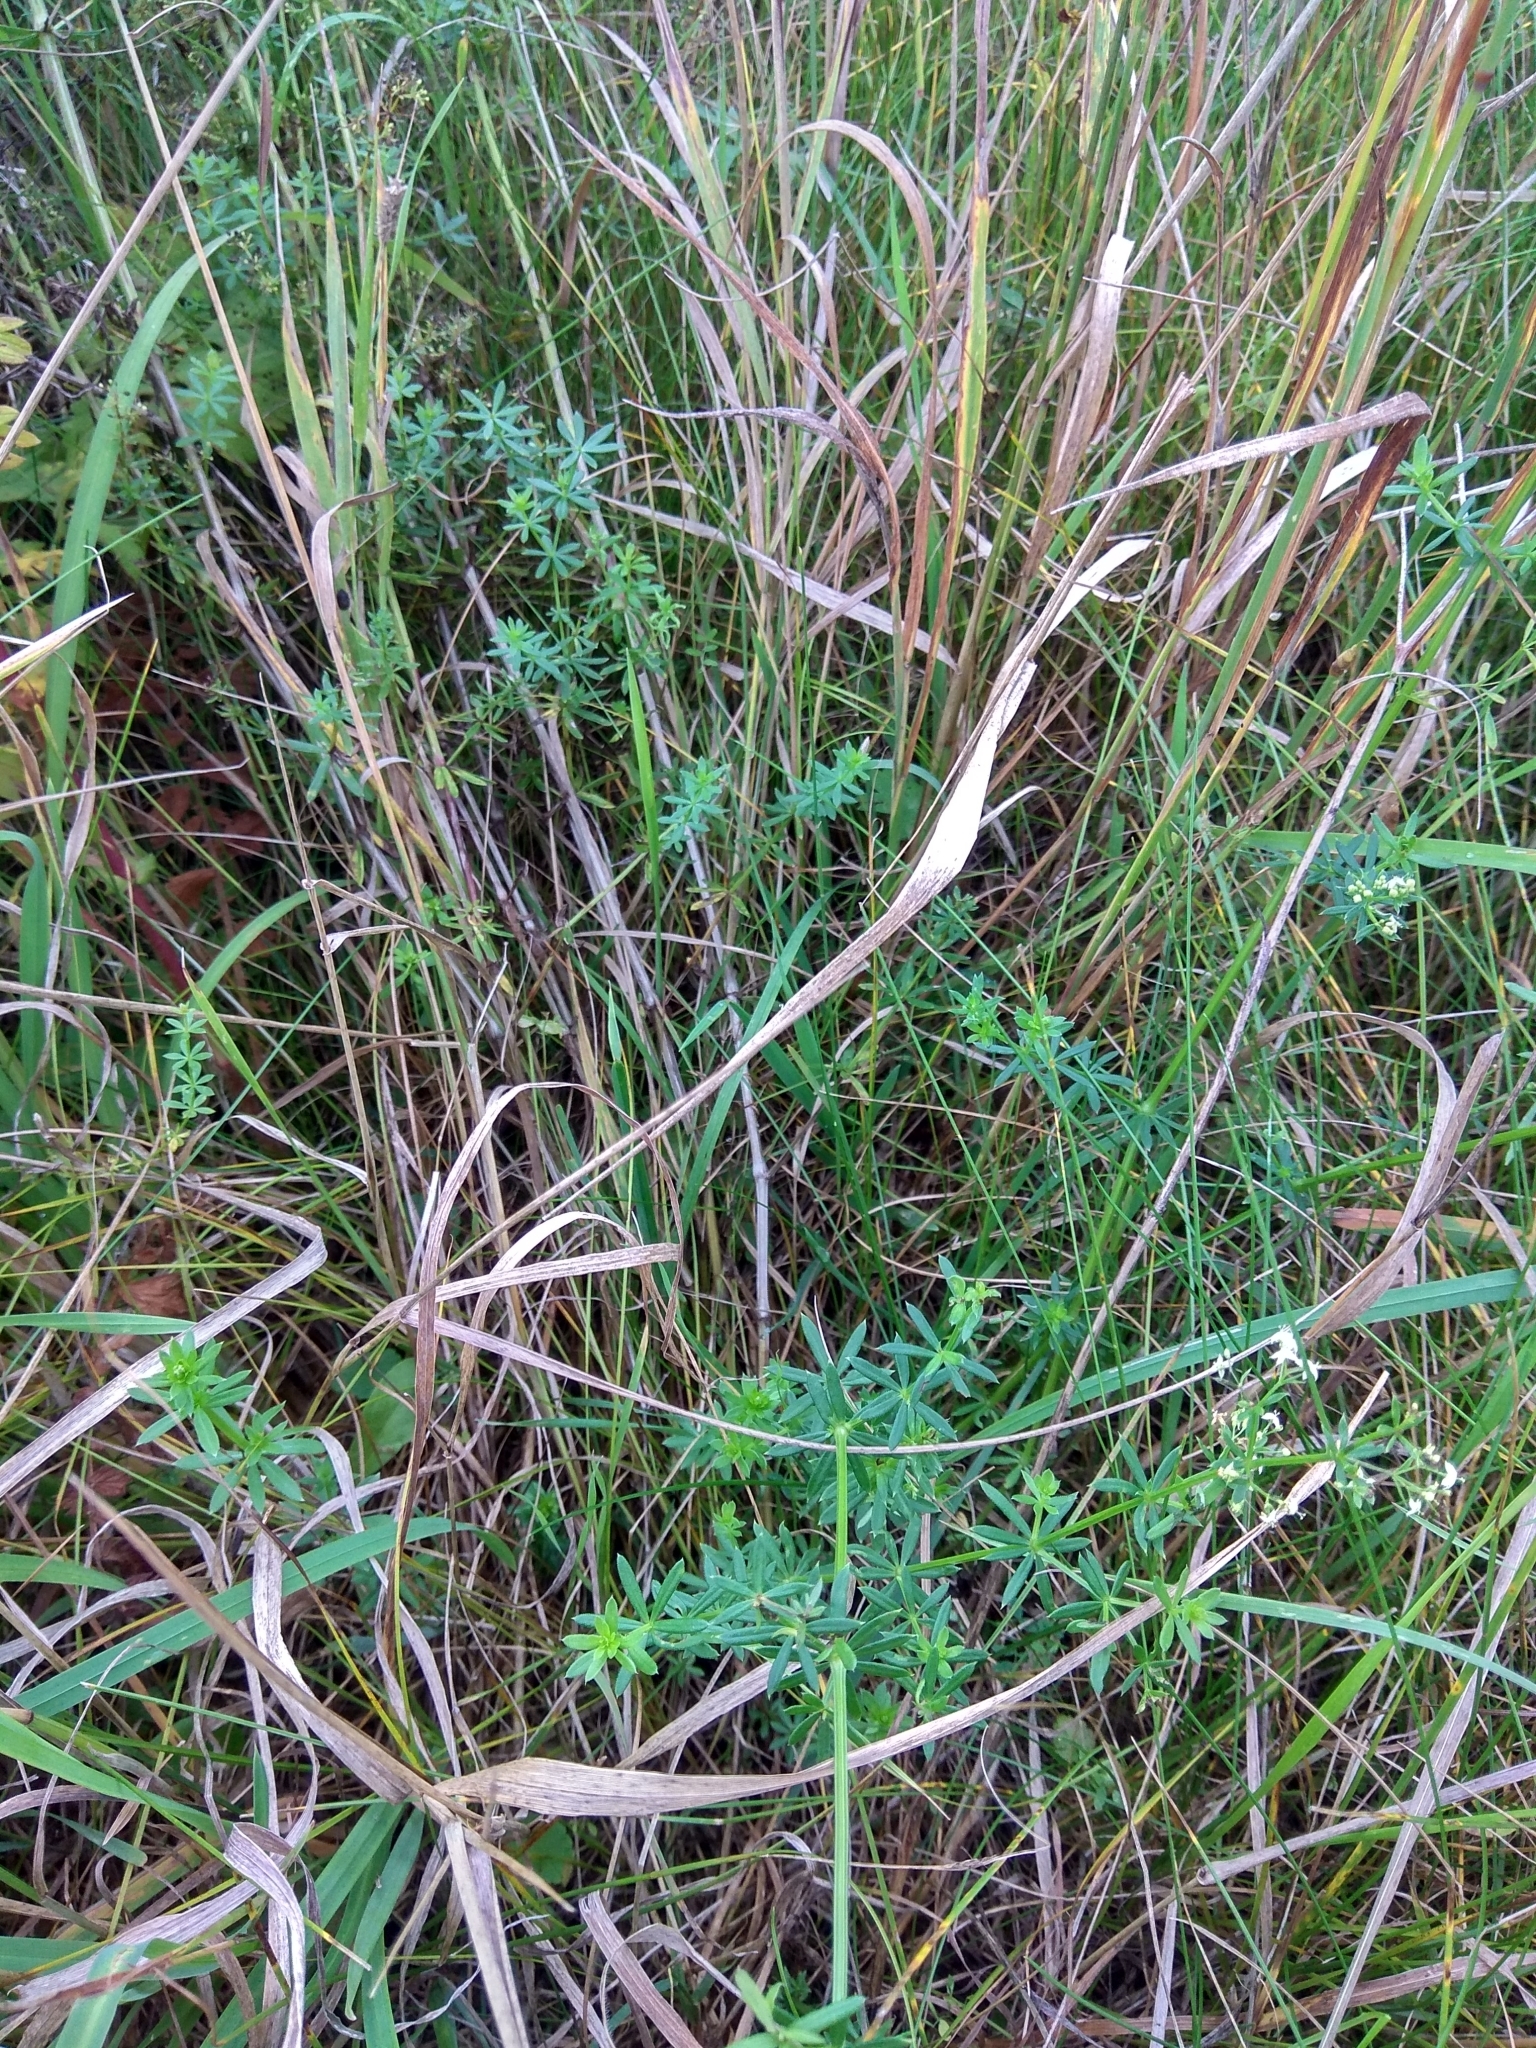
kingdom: Plantae
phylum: Tracheophyta
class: Magnoliopsida
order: Gentianales
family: Rubiaceae
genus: Galium
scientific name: Galium mollugo
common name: Hedge bedstraw
